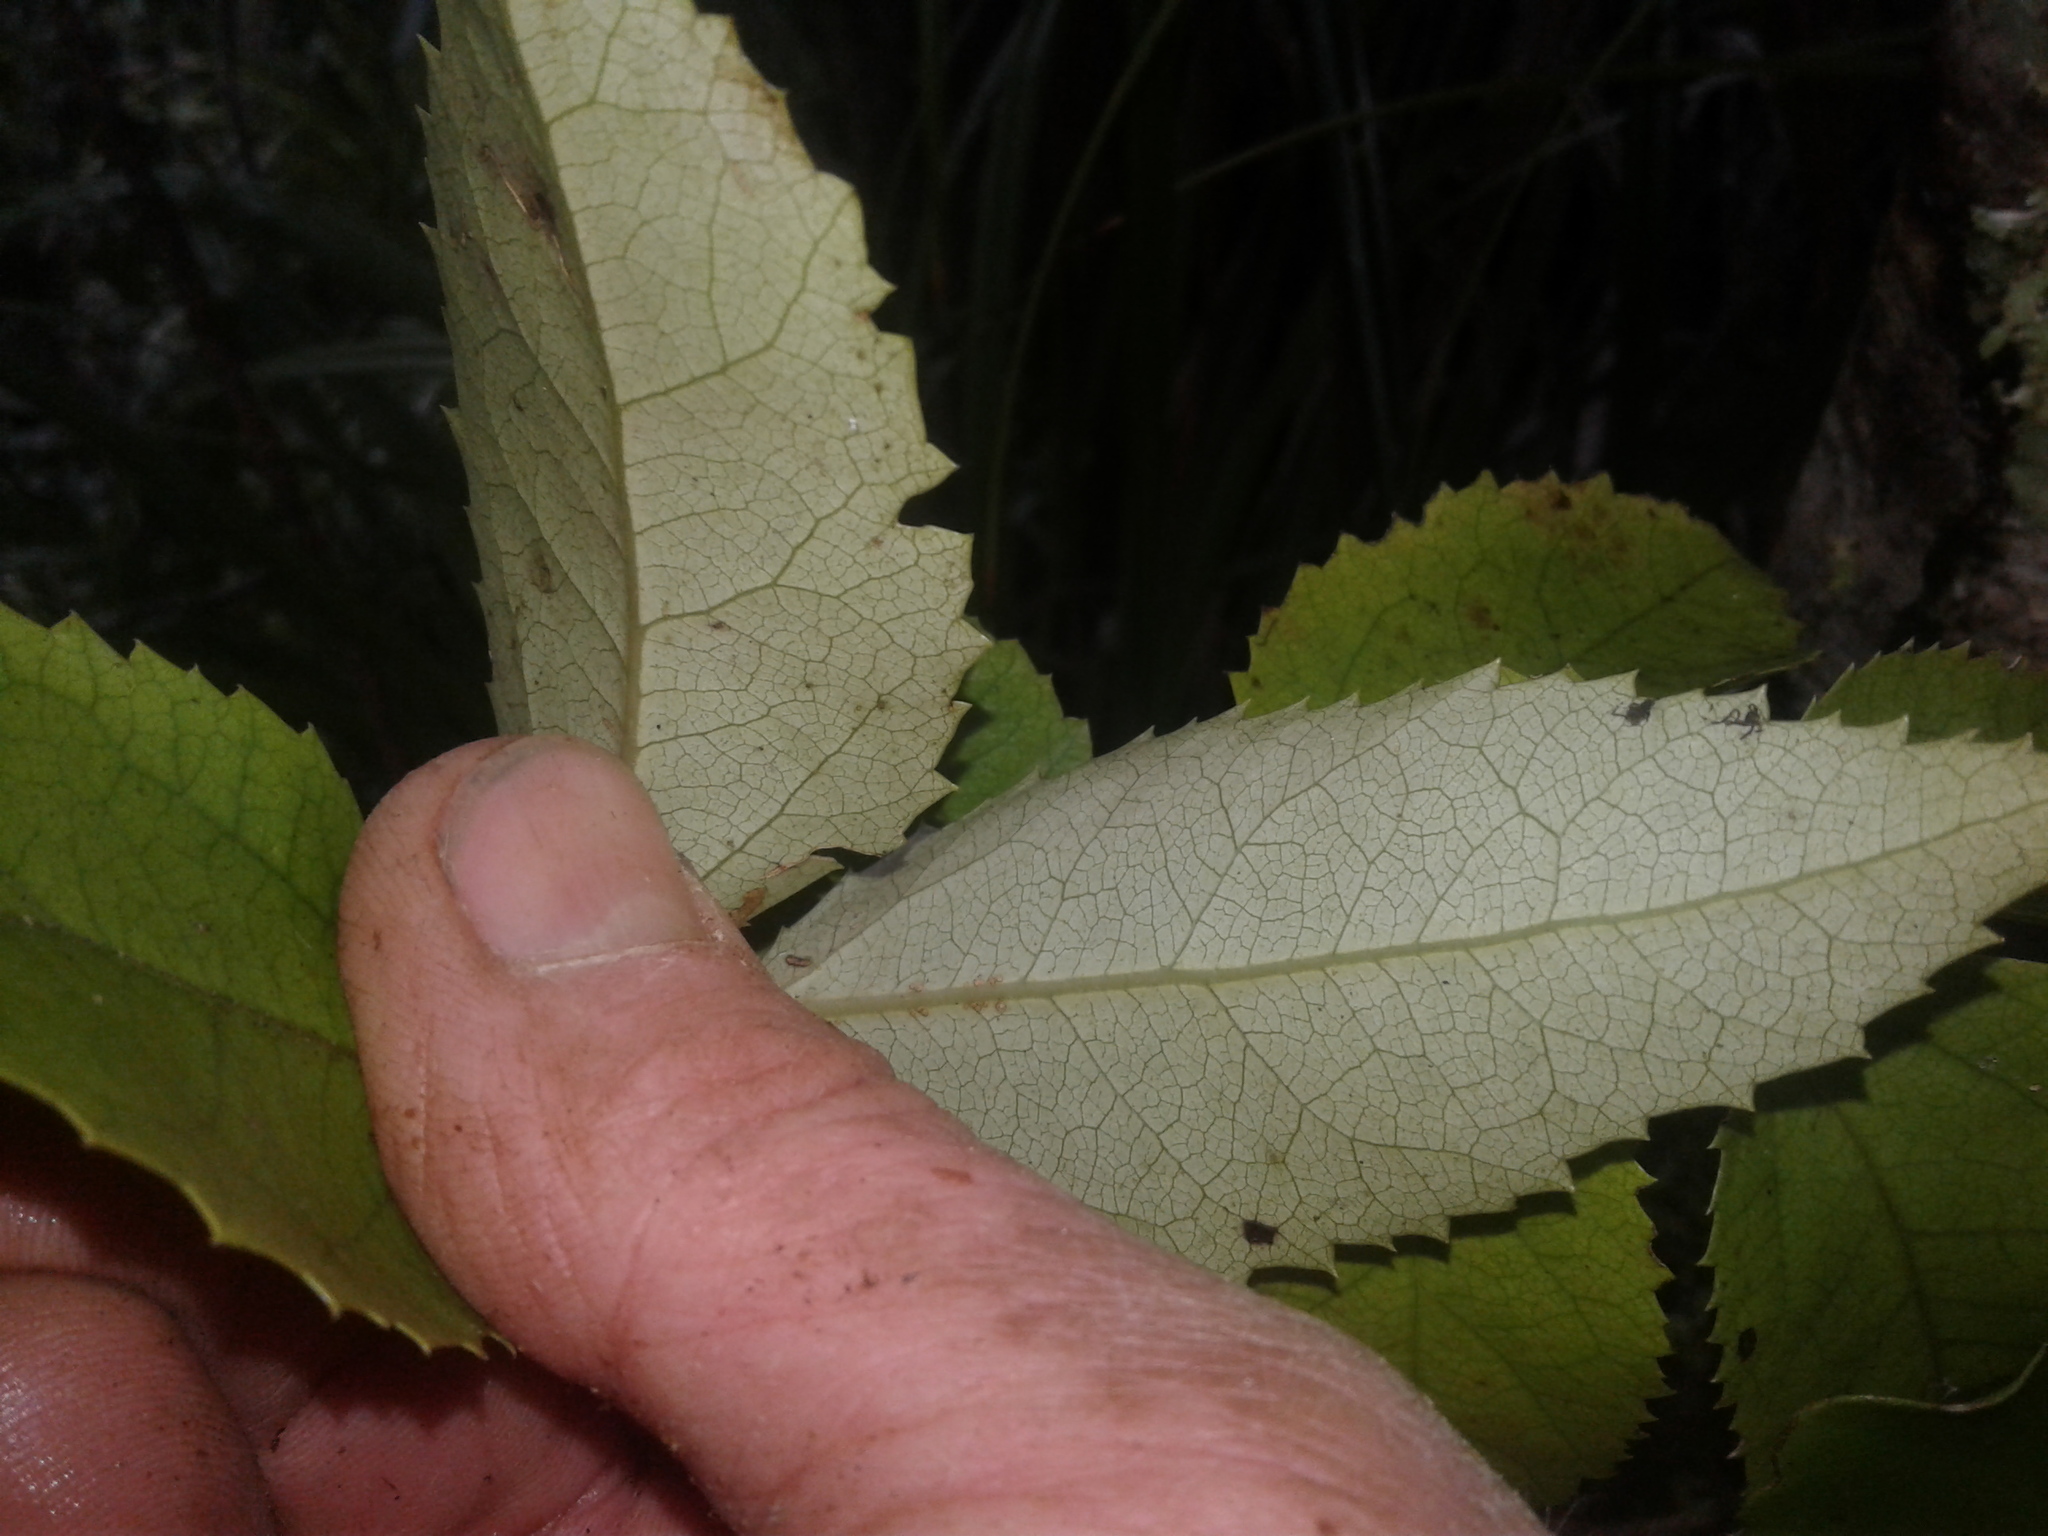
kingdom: Plantae
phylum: Tracheophyta
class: Magnoliopsida
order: Malvales
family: Malvaceae
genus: Hoheria
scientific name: Hoheria ovata
